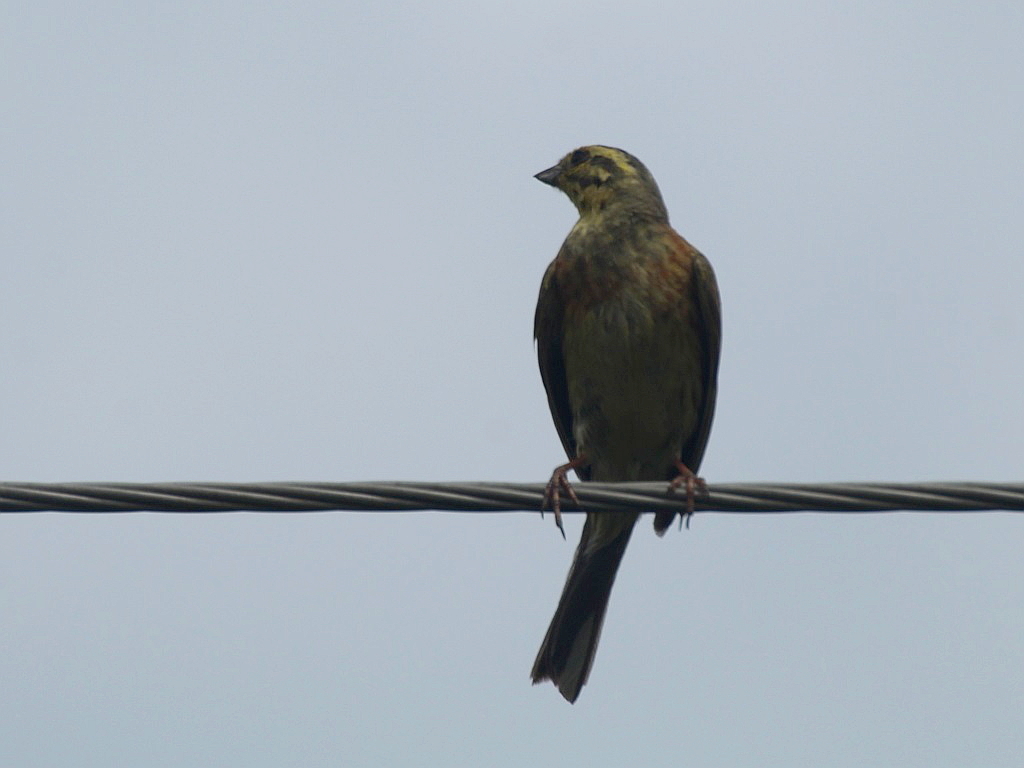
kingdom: Animalia
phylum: Chordata
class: Aves
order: Passeriformes
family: Emberizidae
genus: Emberiza
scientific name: Emberiza citrinella
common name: Yellowhammer
